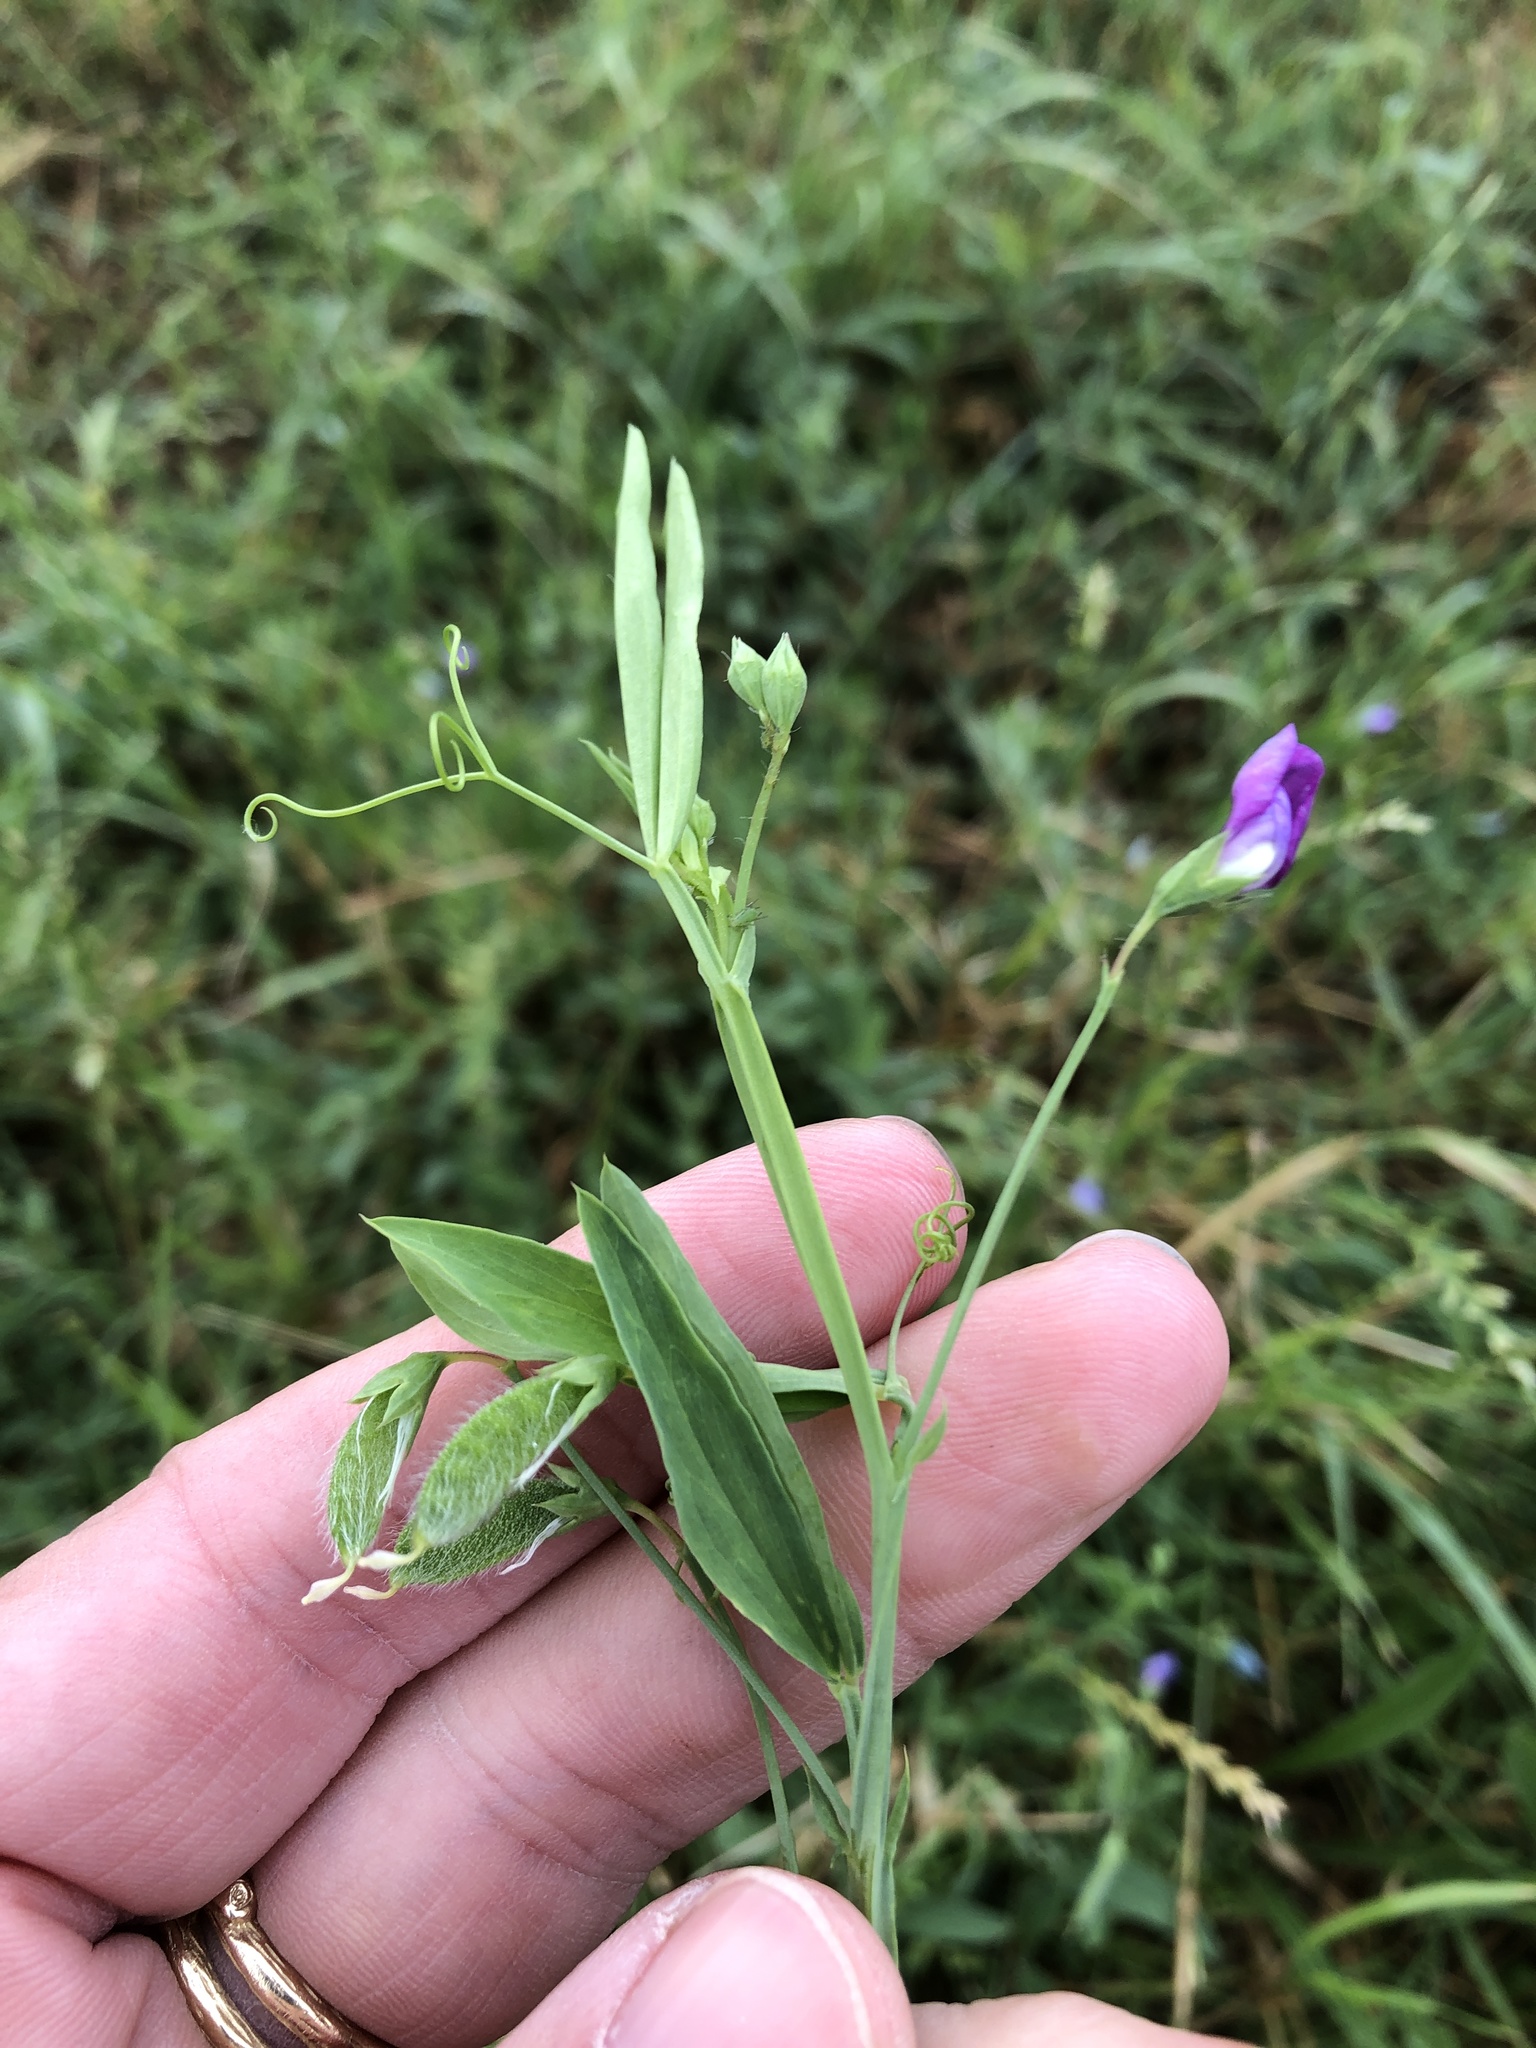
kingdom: Plantae
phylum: Tracheophyta
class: Magnoliopsida
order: Fabales
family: Fabaceae
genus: Lathyrus
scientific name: Lathyrus hirsutus
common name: Hairy vetchling
